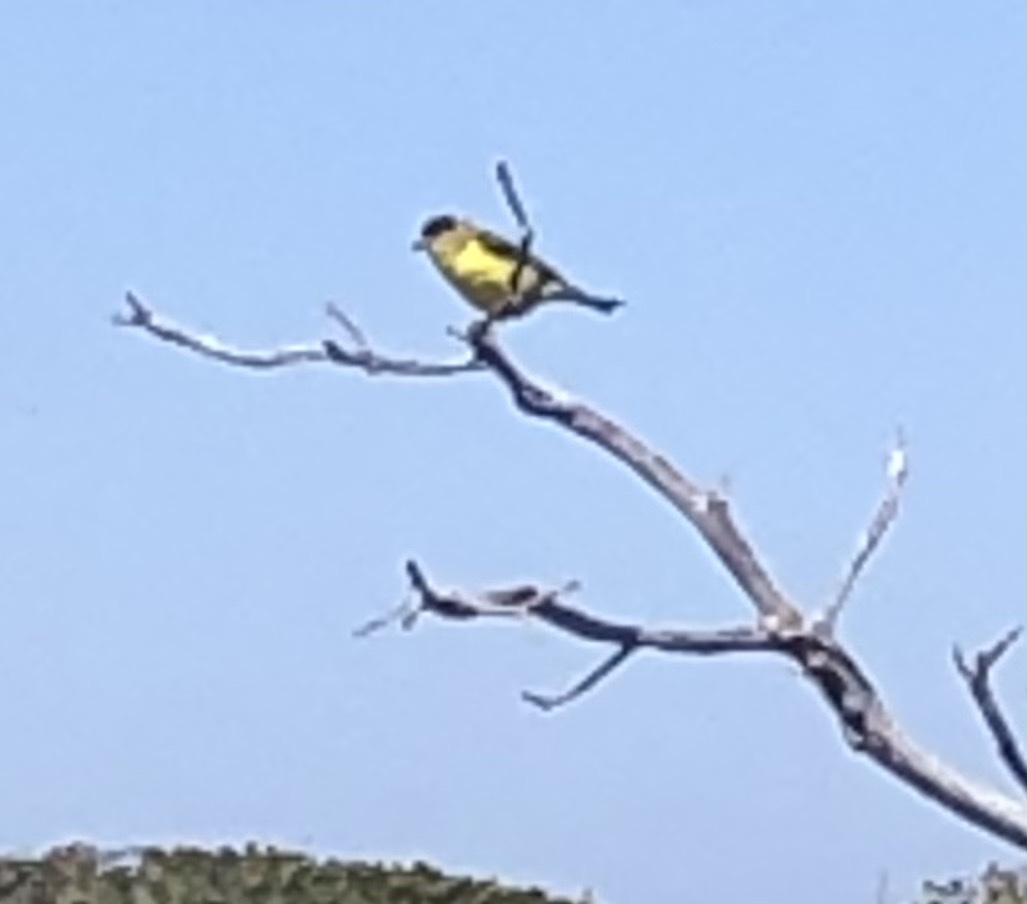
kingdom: Animalia
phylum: Chordata
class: Aves
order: Passeriformes
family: Fringillidae
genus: Spinus
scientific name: Spinus psaltria
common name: Lesser goldfinch
